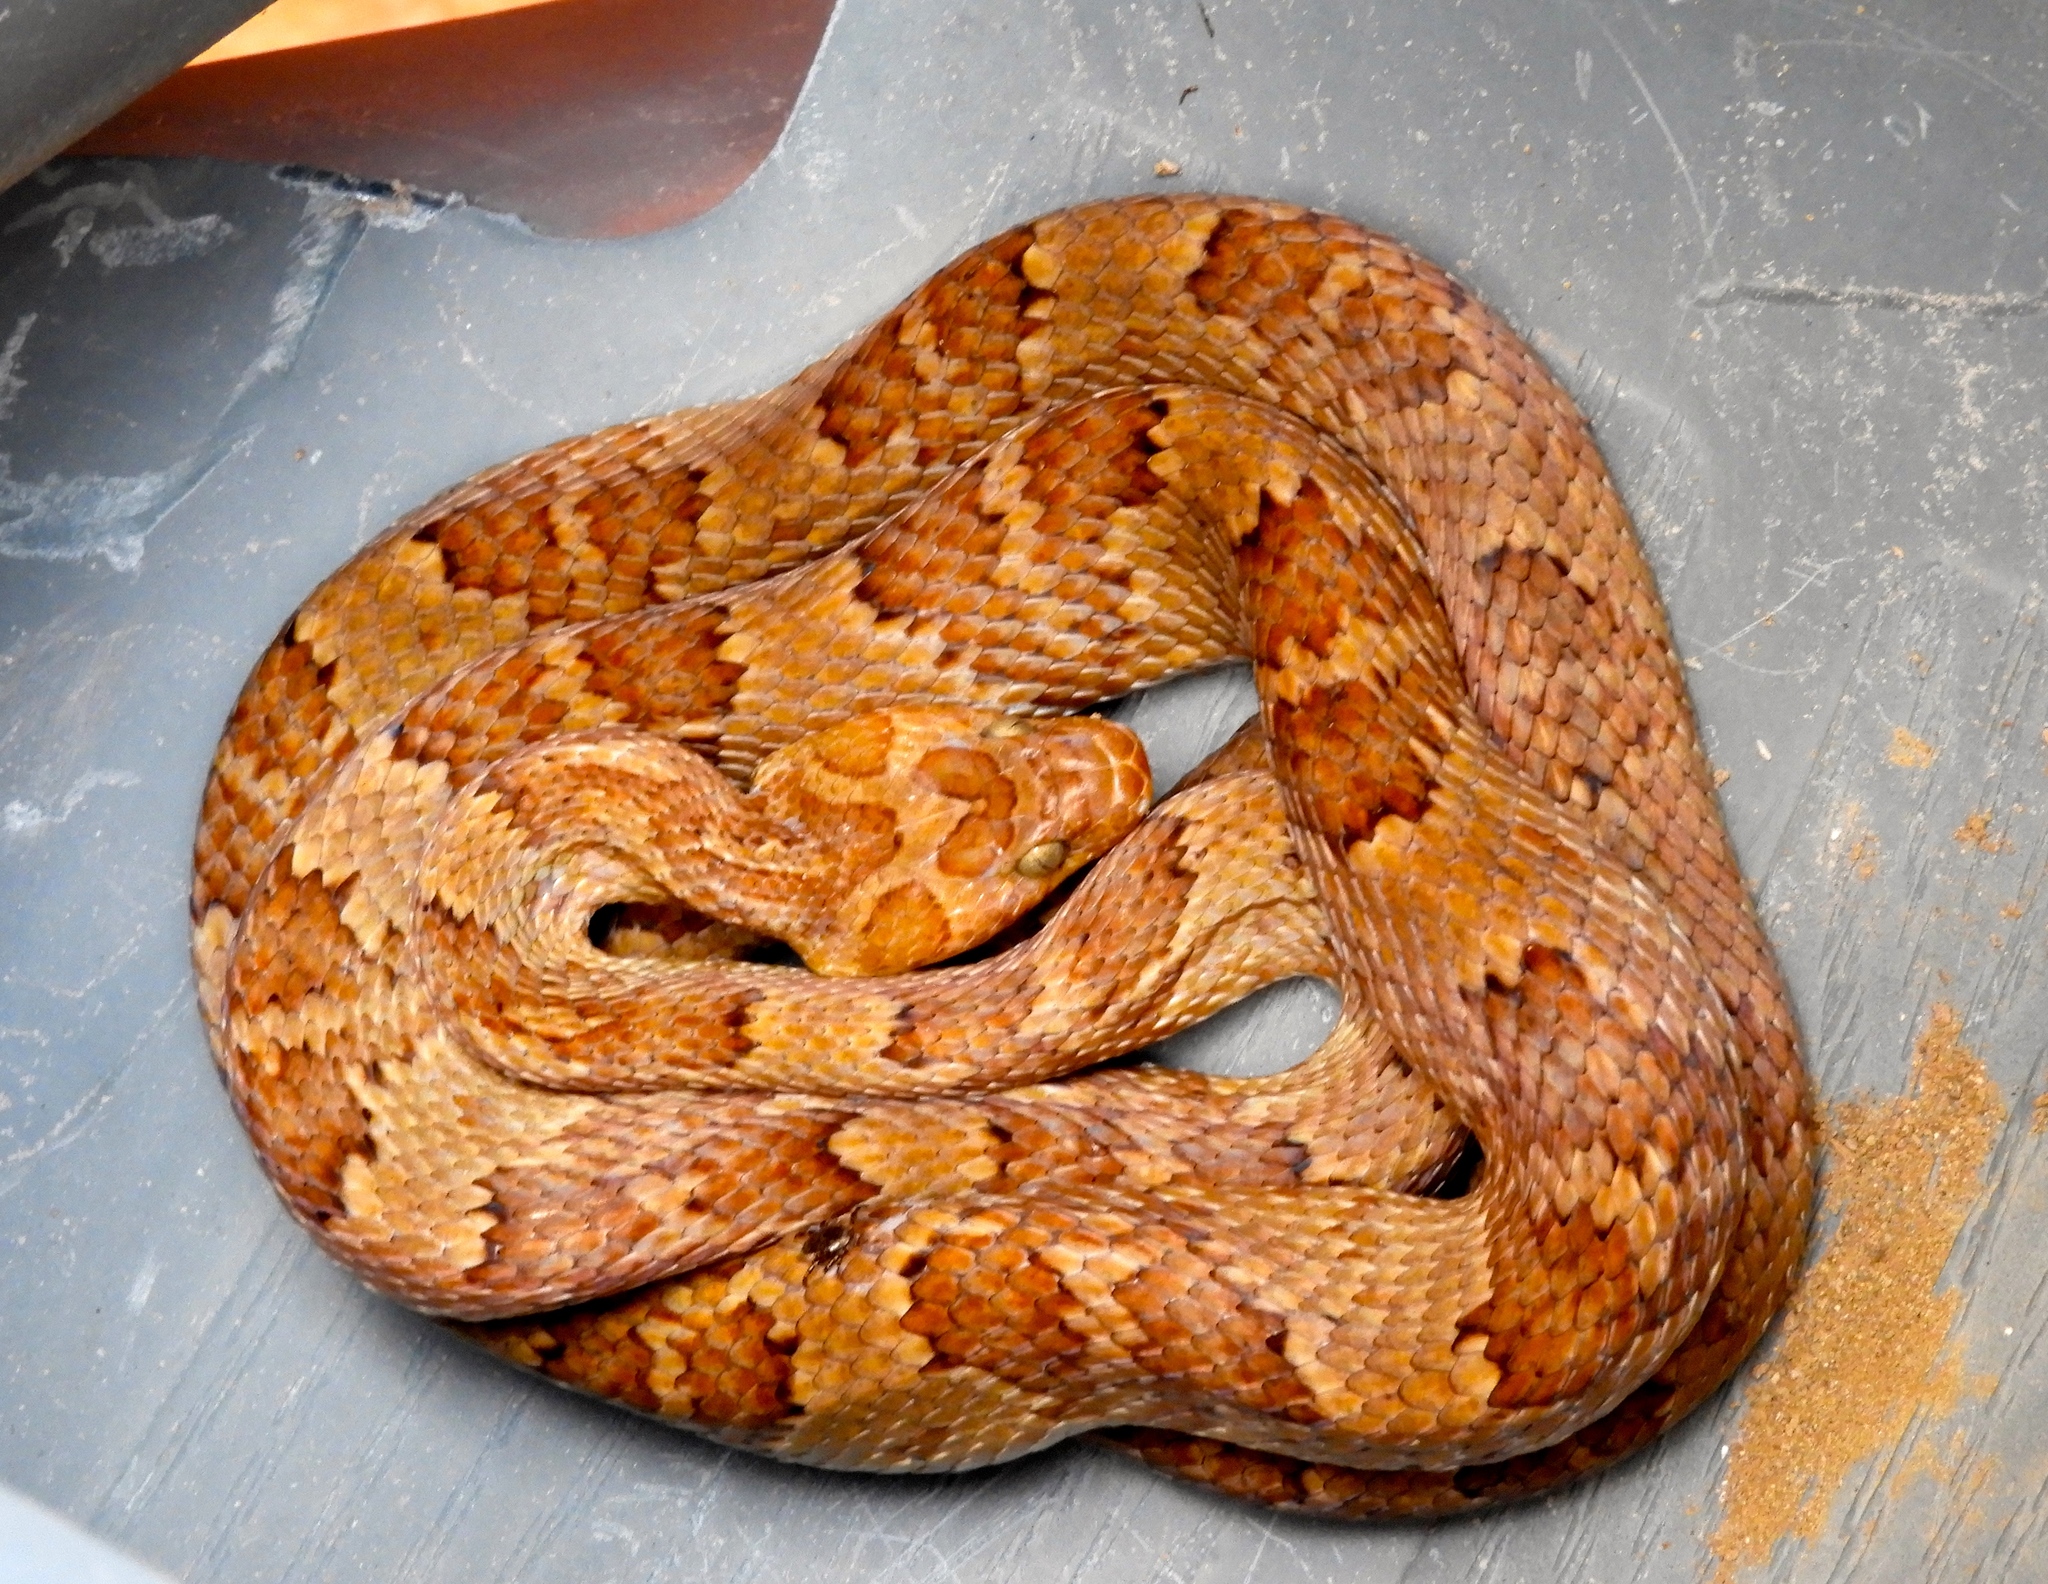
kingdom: Animalia
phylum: Chordata
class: Squamata
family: Colubridae
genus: Trimorphodon
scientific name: Trimorphodon paucimaculatus
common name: Sinaloan lyresnake
